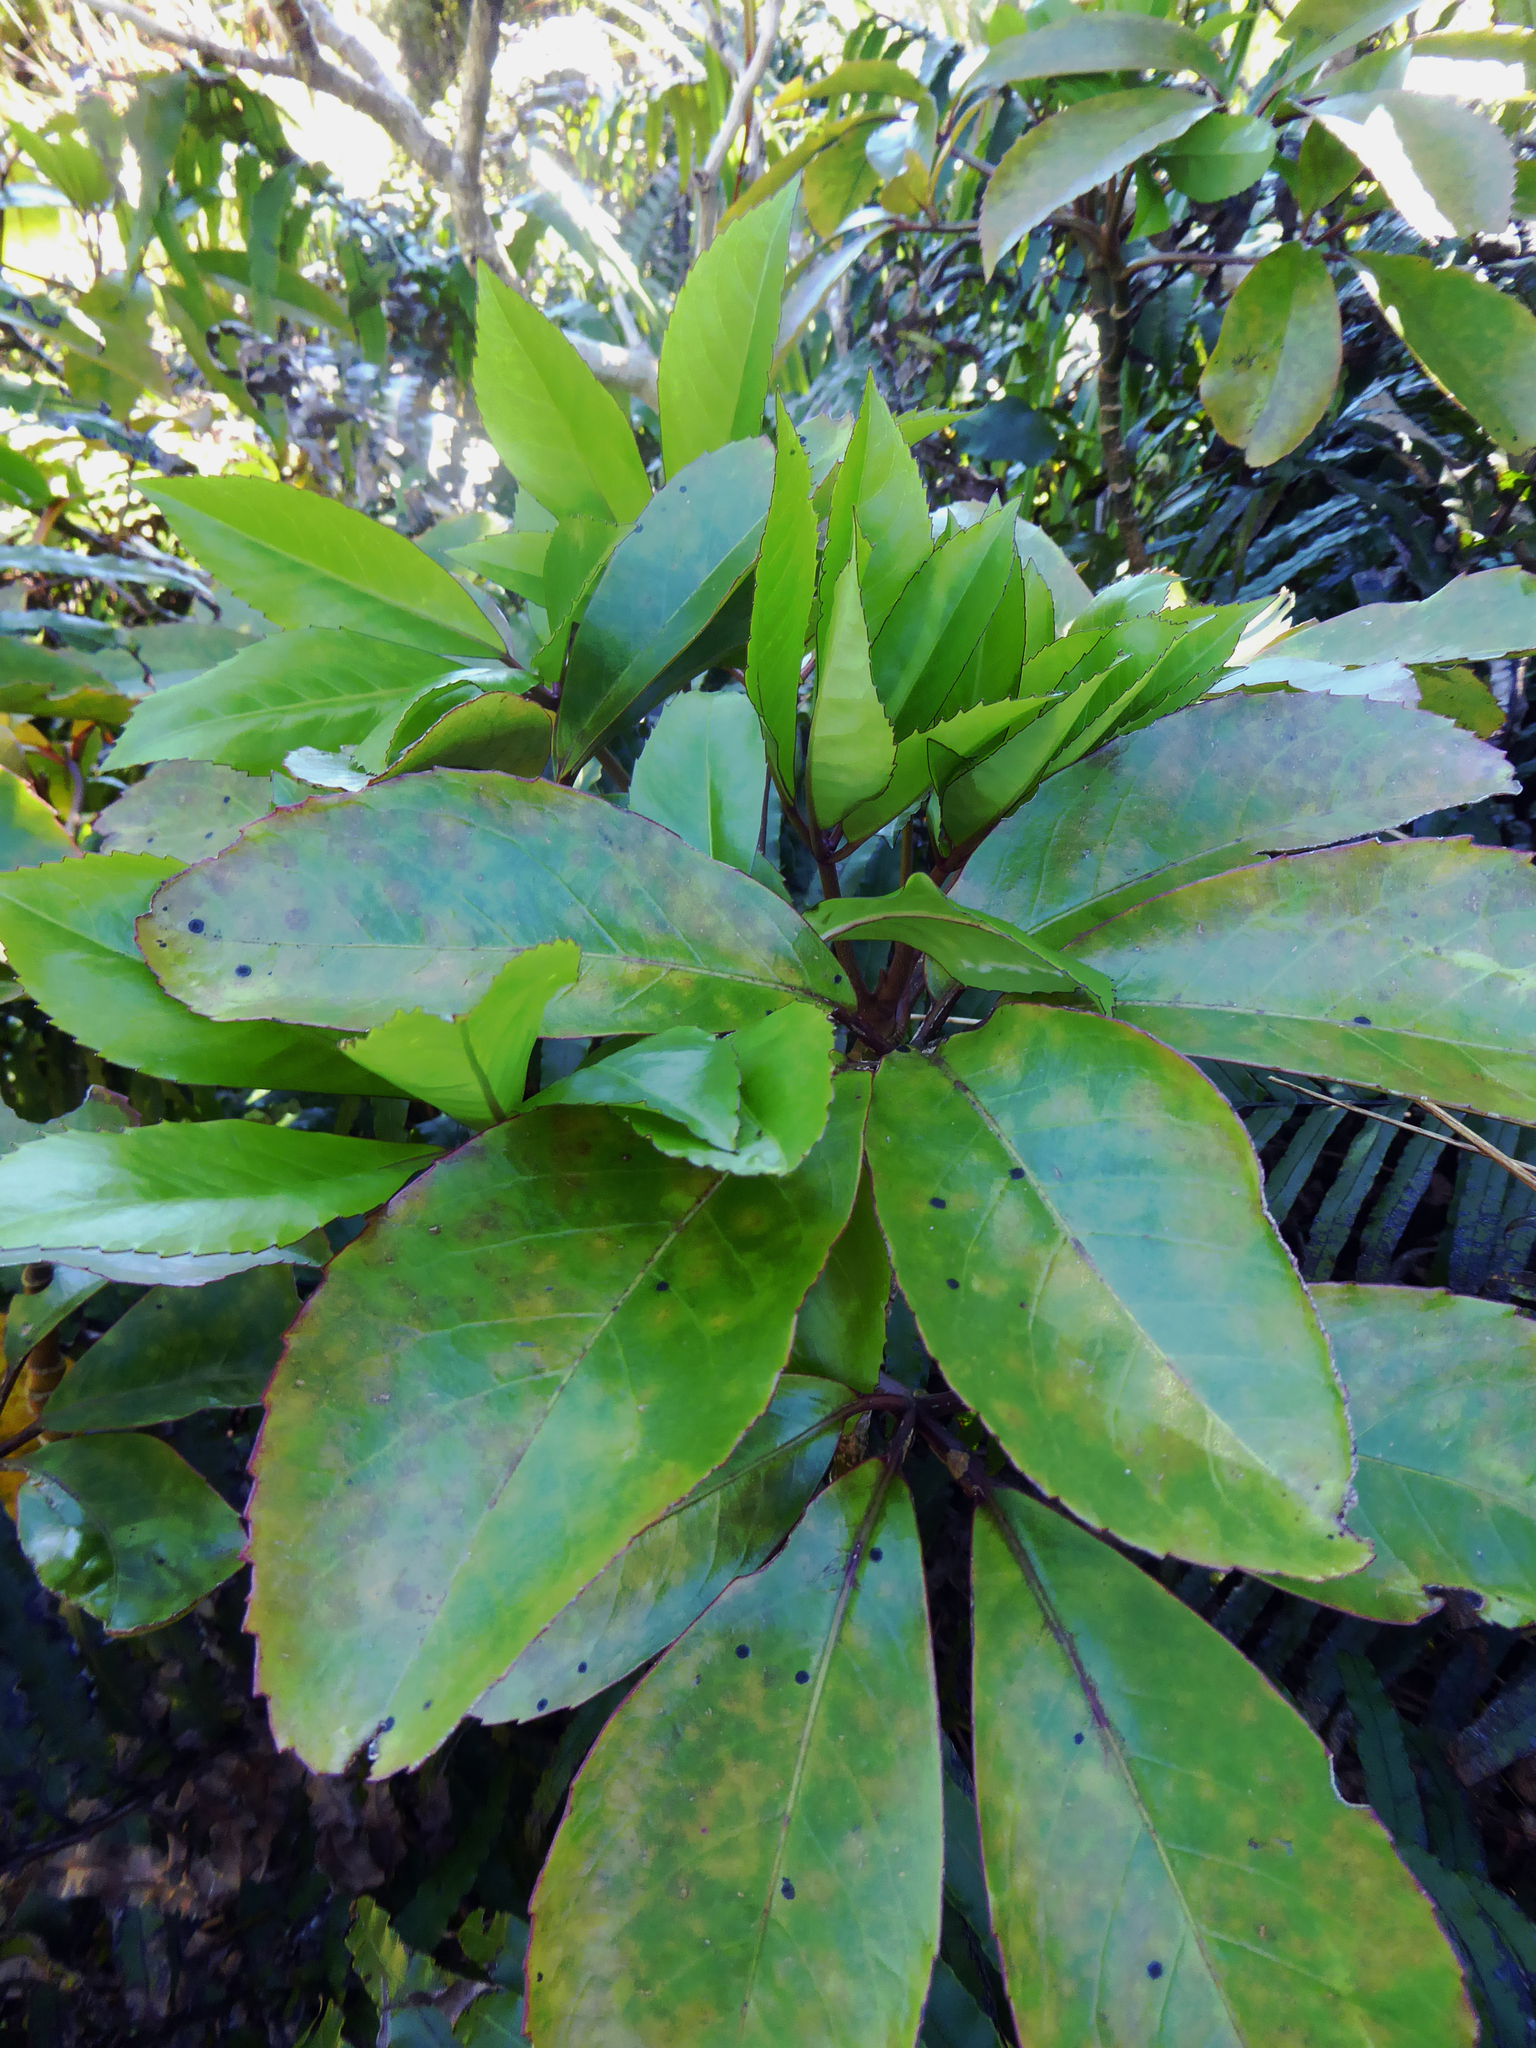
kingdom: Plantae
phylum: Tracheophyta
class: Magnoliopsida
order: Apiales
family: Araliaceae
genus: Neopanax
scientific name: Neopanax laetus
